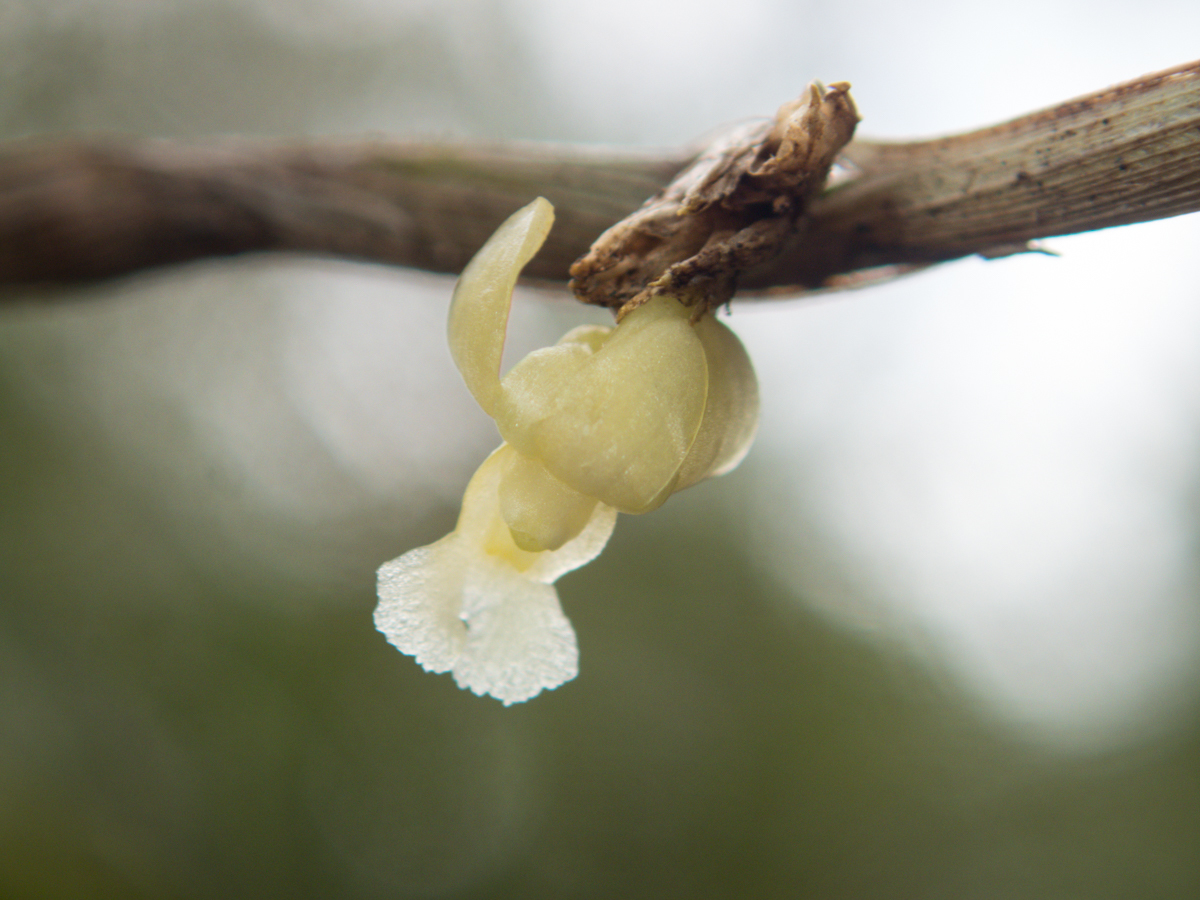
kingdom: Plantae
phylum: Tracheophyta
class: Liliopsida
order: Asparagales
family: Orchidaceae
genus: Dendrobium
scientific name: Dendrobium aloifolium
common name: Aloe-like dendrobium
